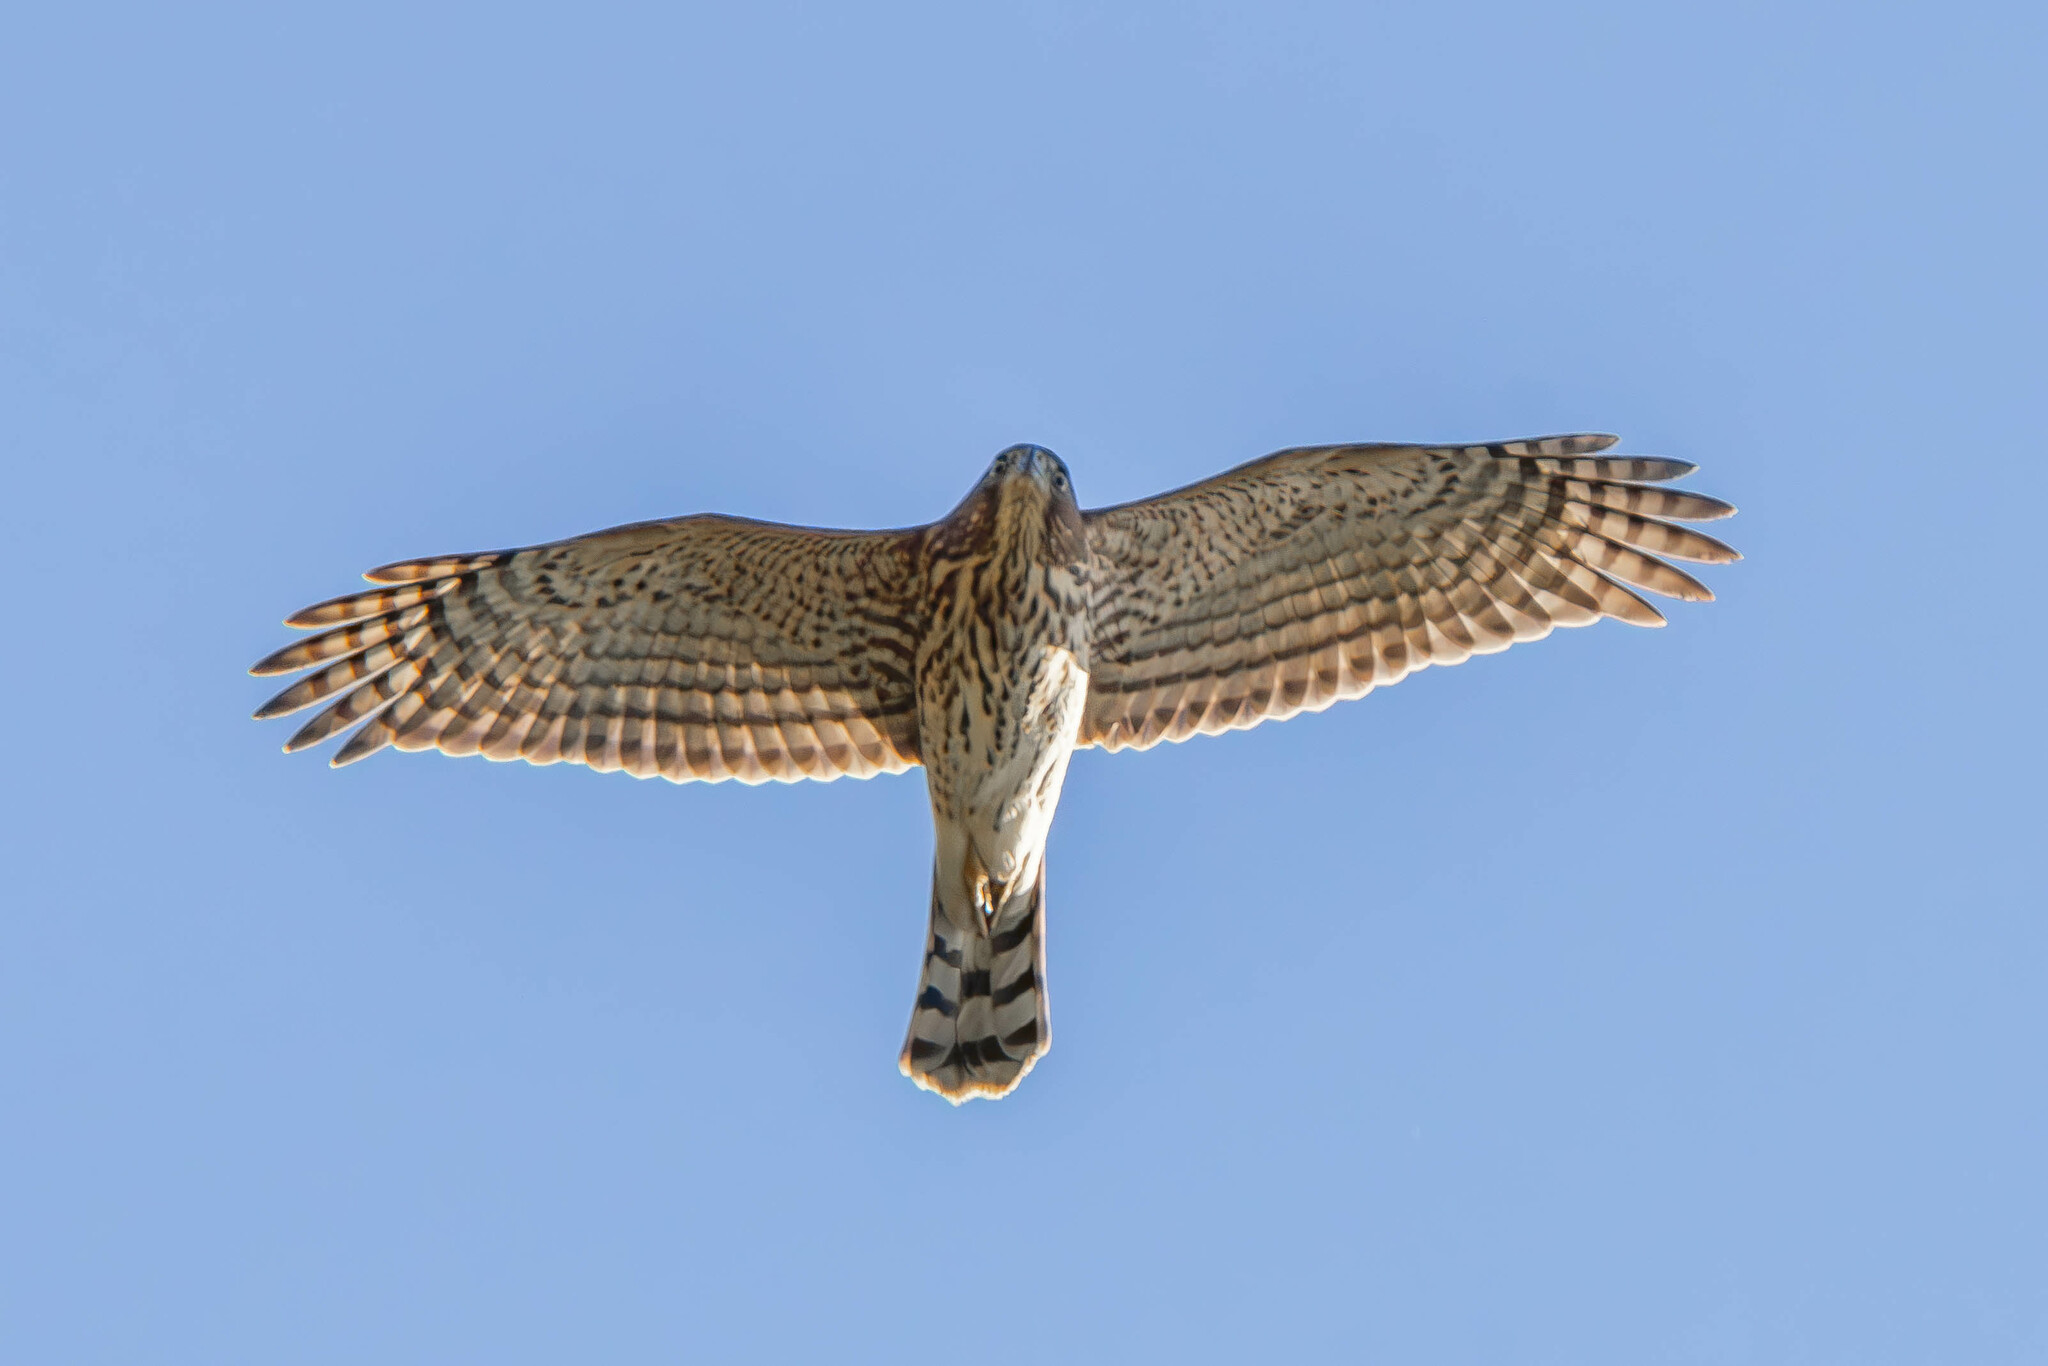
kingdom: Animalia
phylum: Chordata
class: Aves
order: Accipitriformes
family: Accipitridae
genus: Accipiter
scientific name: Accipiter cooperii
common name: Cooper's hawk
